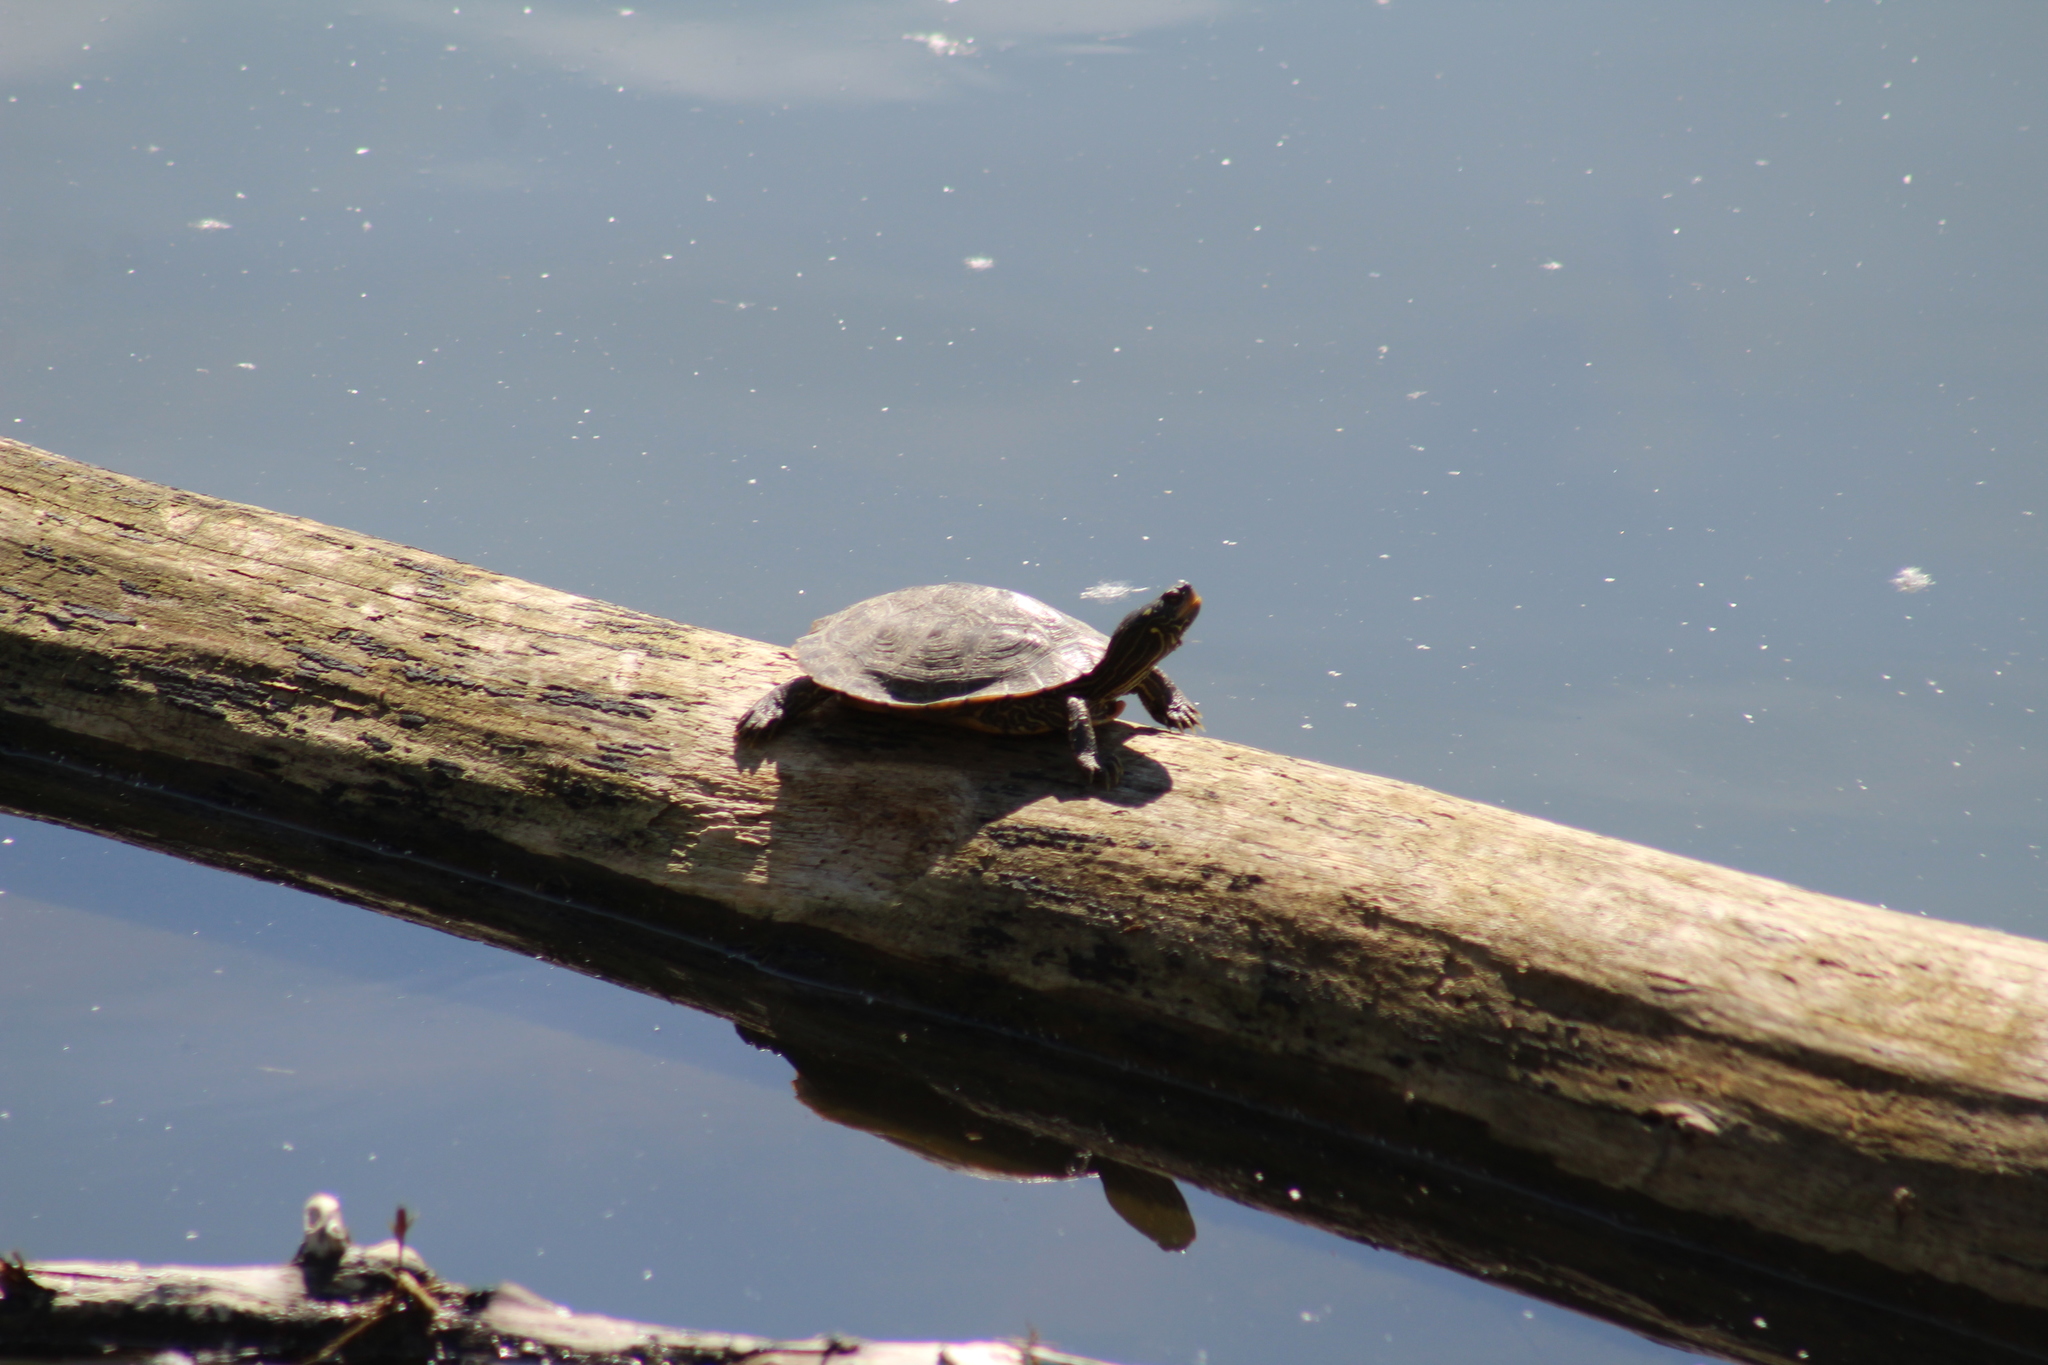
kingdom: Animalia
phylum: Chordata
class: Testudines
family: Emydidae
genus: Graptemys
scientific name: Graptemys geographica
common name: Common map turtle
